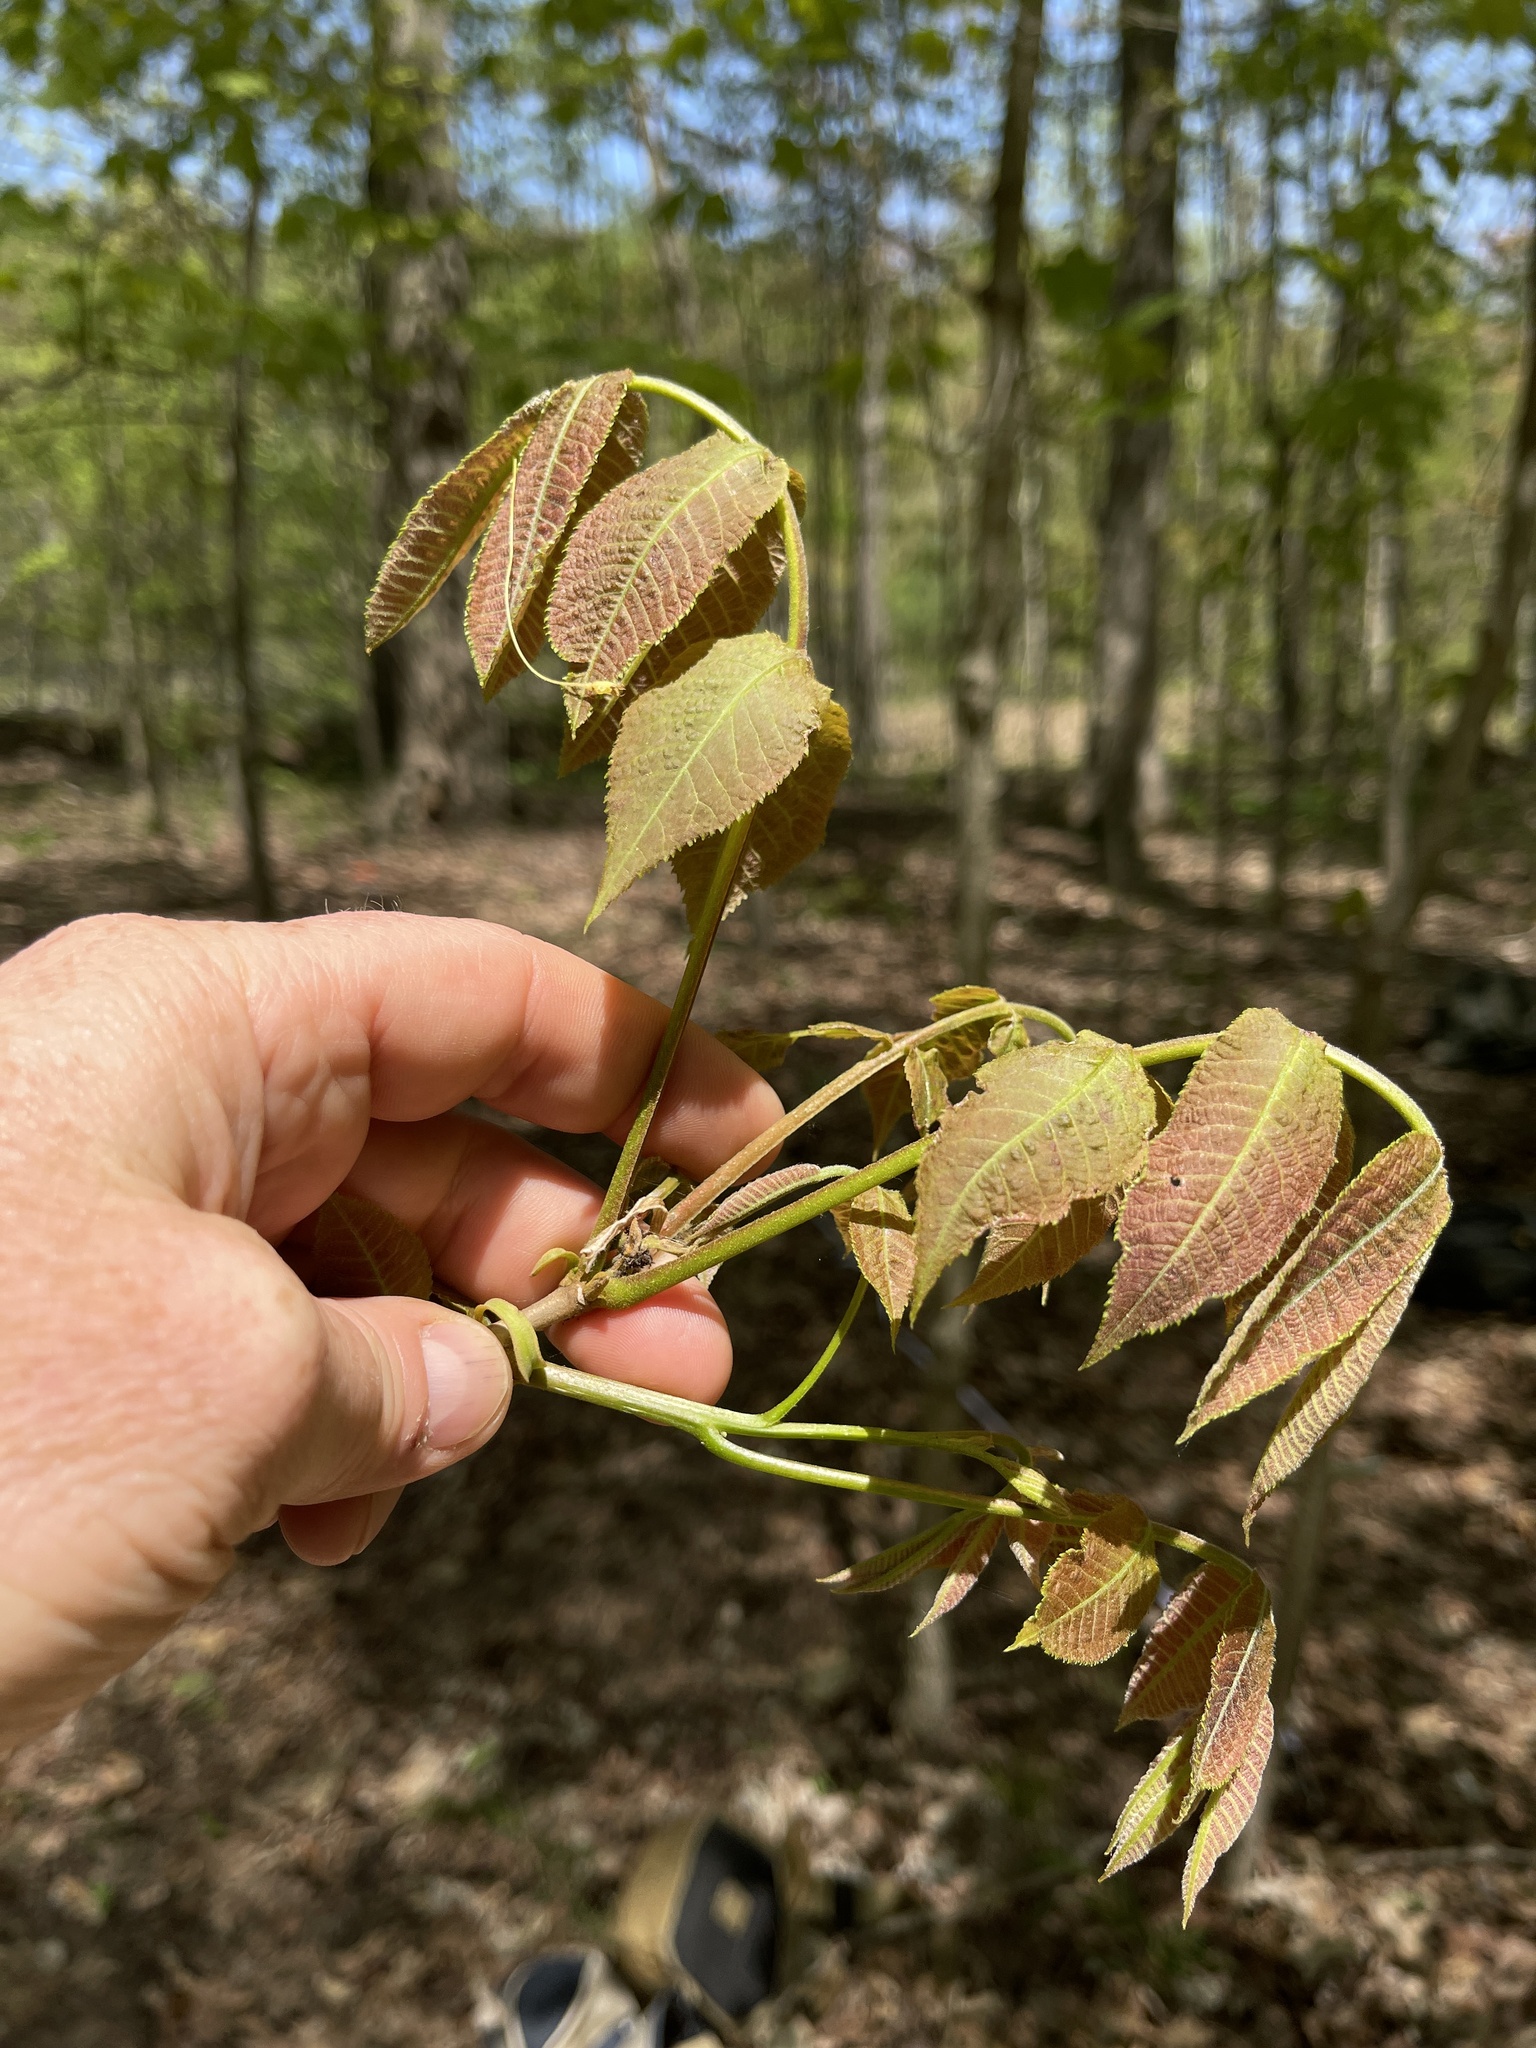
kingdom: Plantae
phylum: Tracheophyta
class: Magnoliopsida
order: Fagales
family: Juglandaceae
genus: Carya
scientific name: Carya cordiformis
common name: Bitternut hickory
